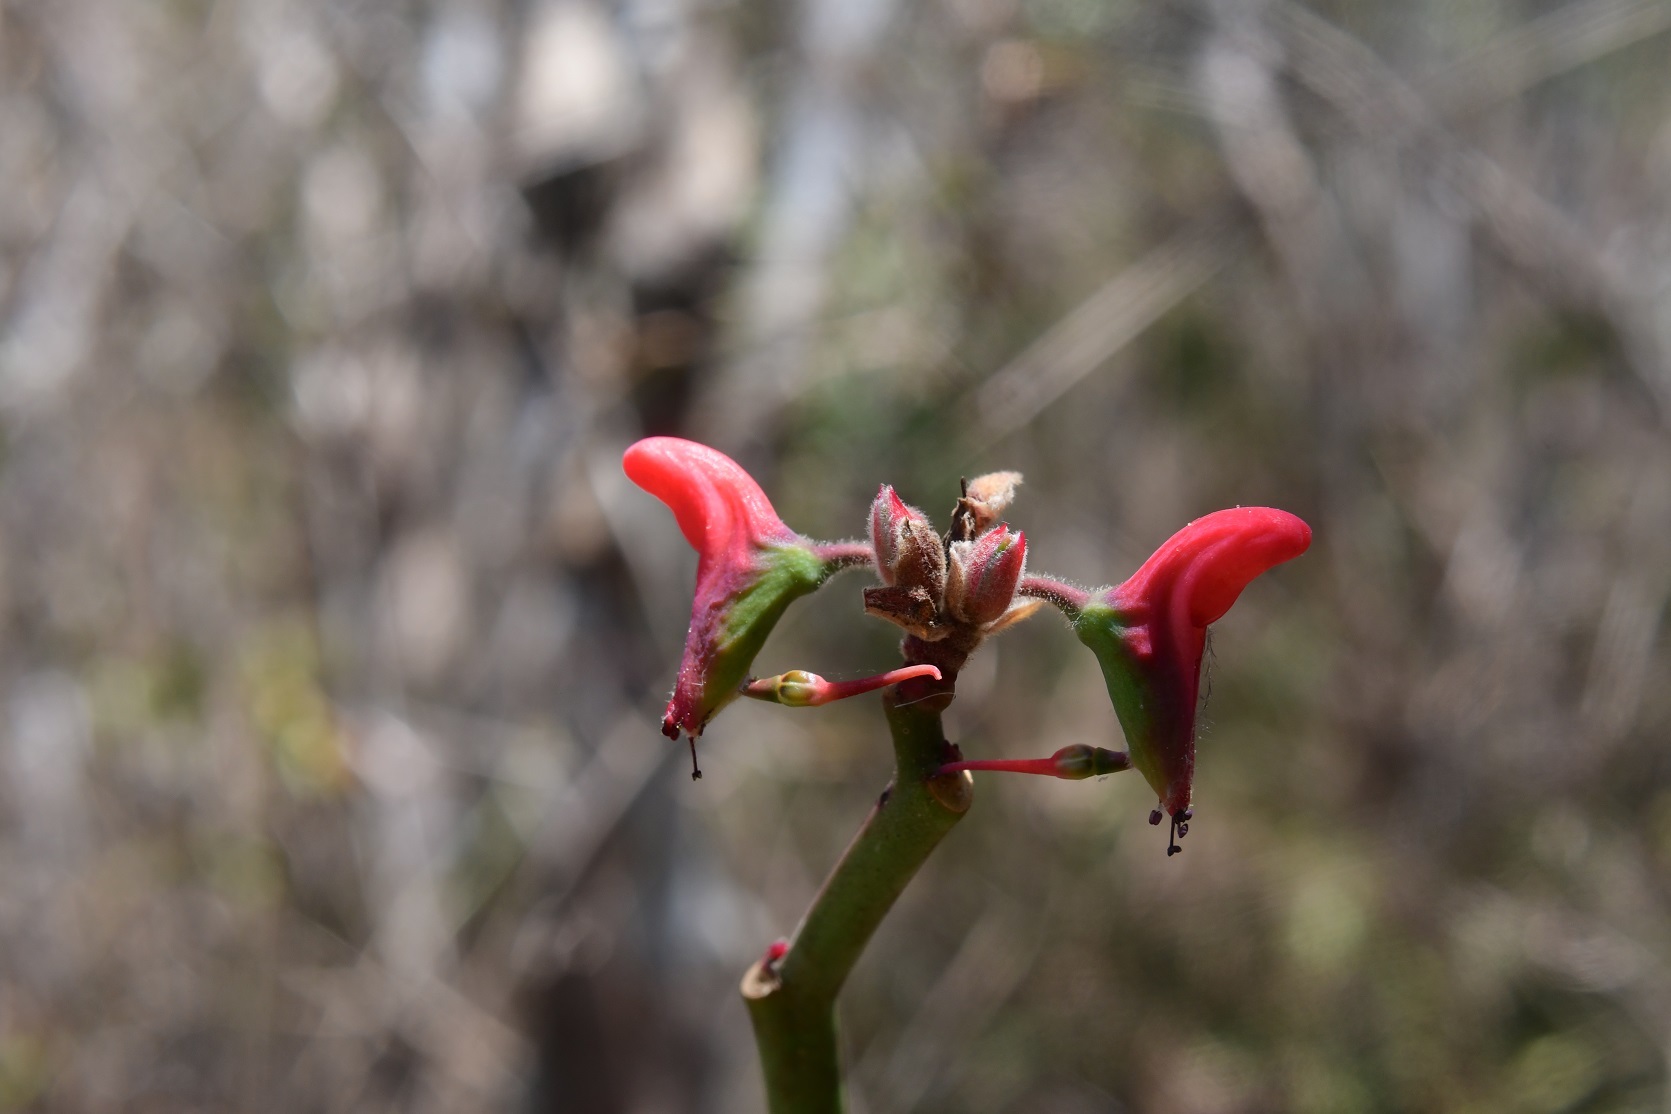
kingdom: Plantae
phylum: Tracheophyta
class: Magnoliopsida
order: Malpighiales
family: Euphorbiaceae
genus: Euphorbia
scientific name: Euphorbia calcarata
